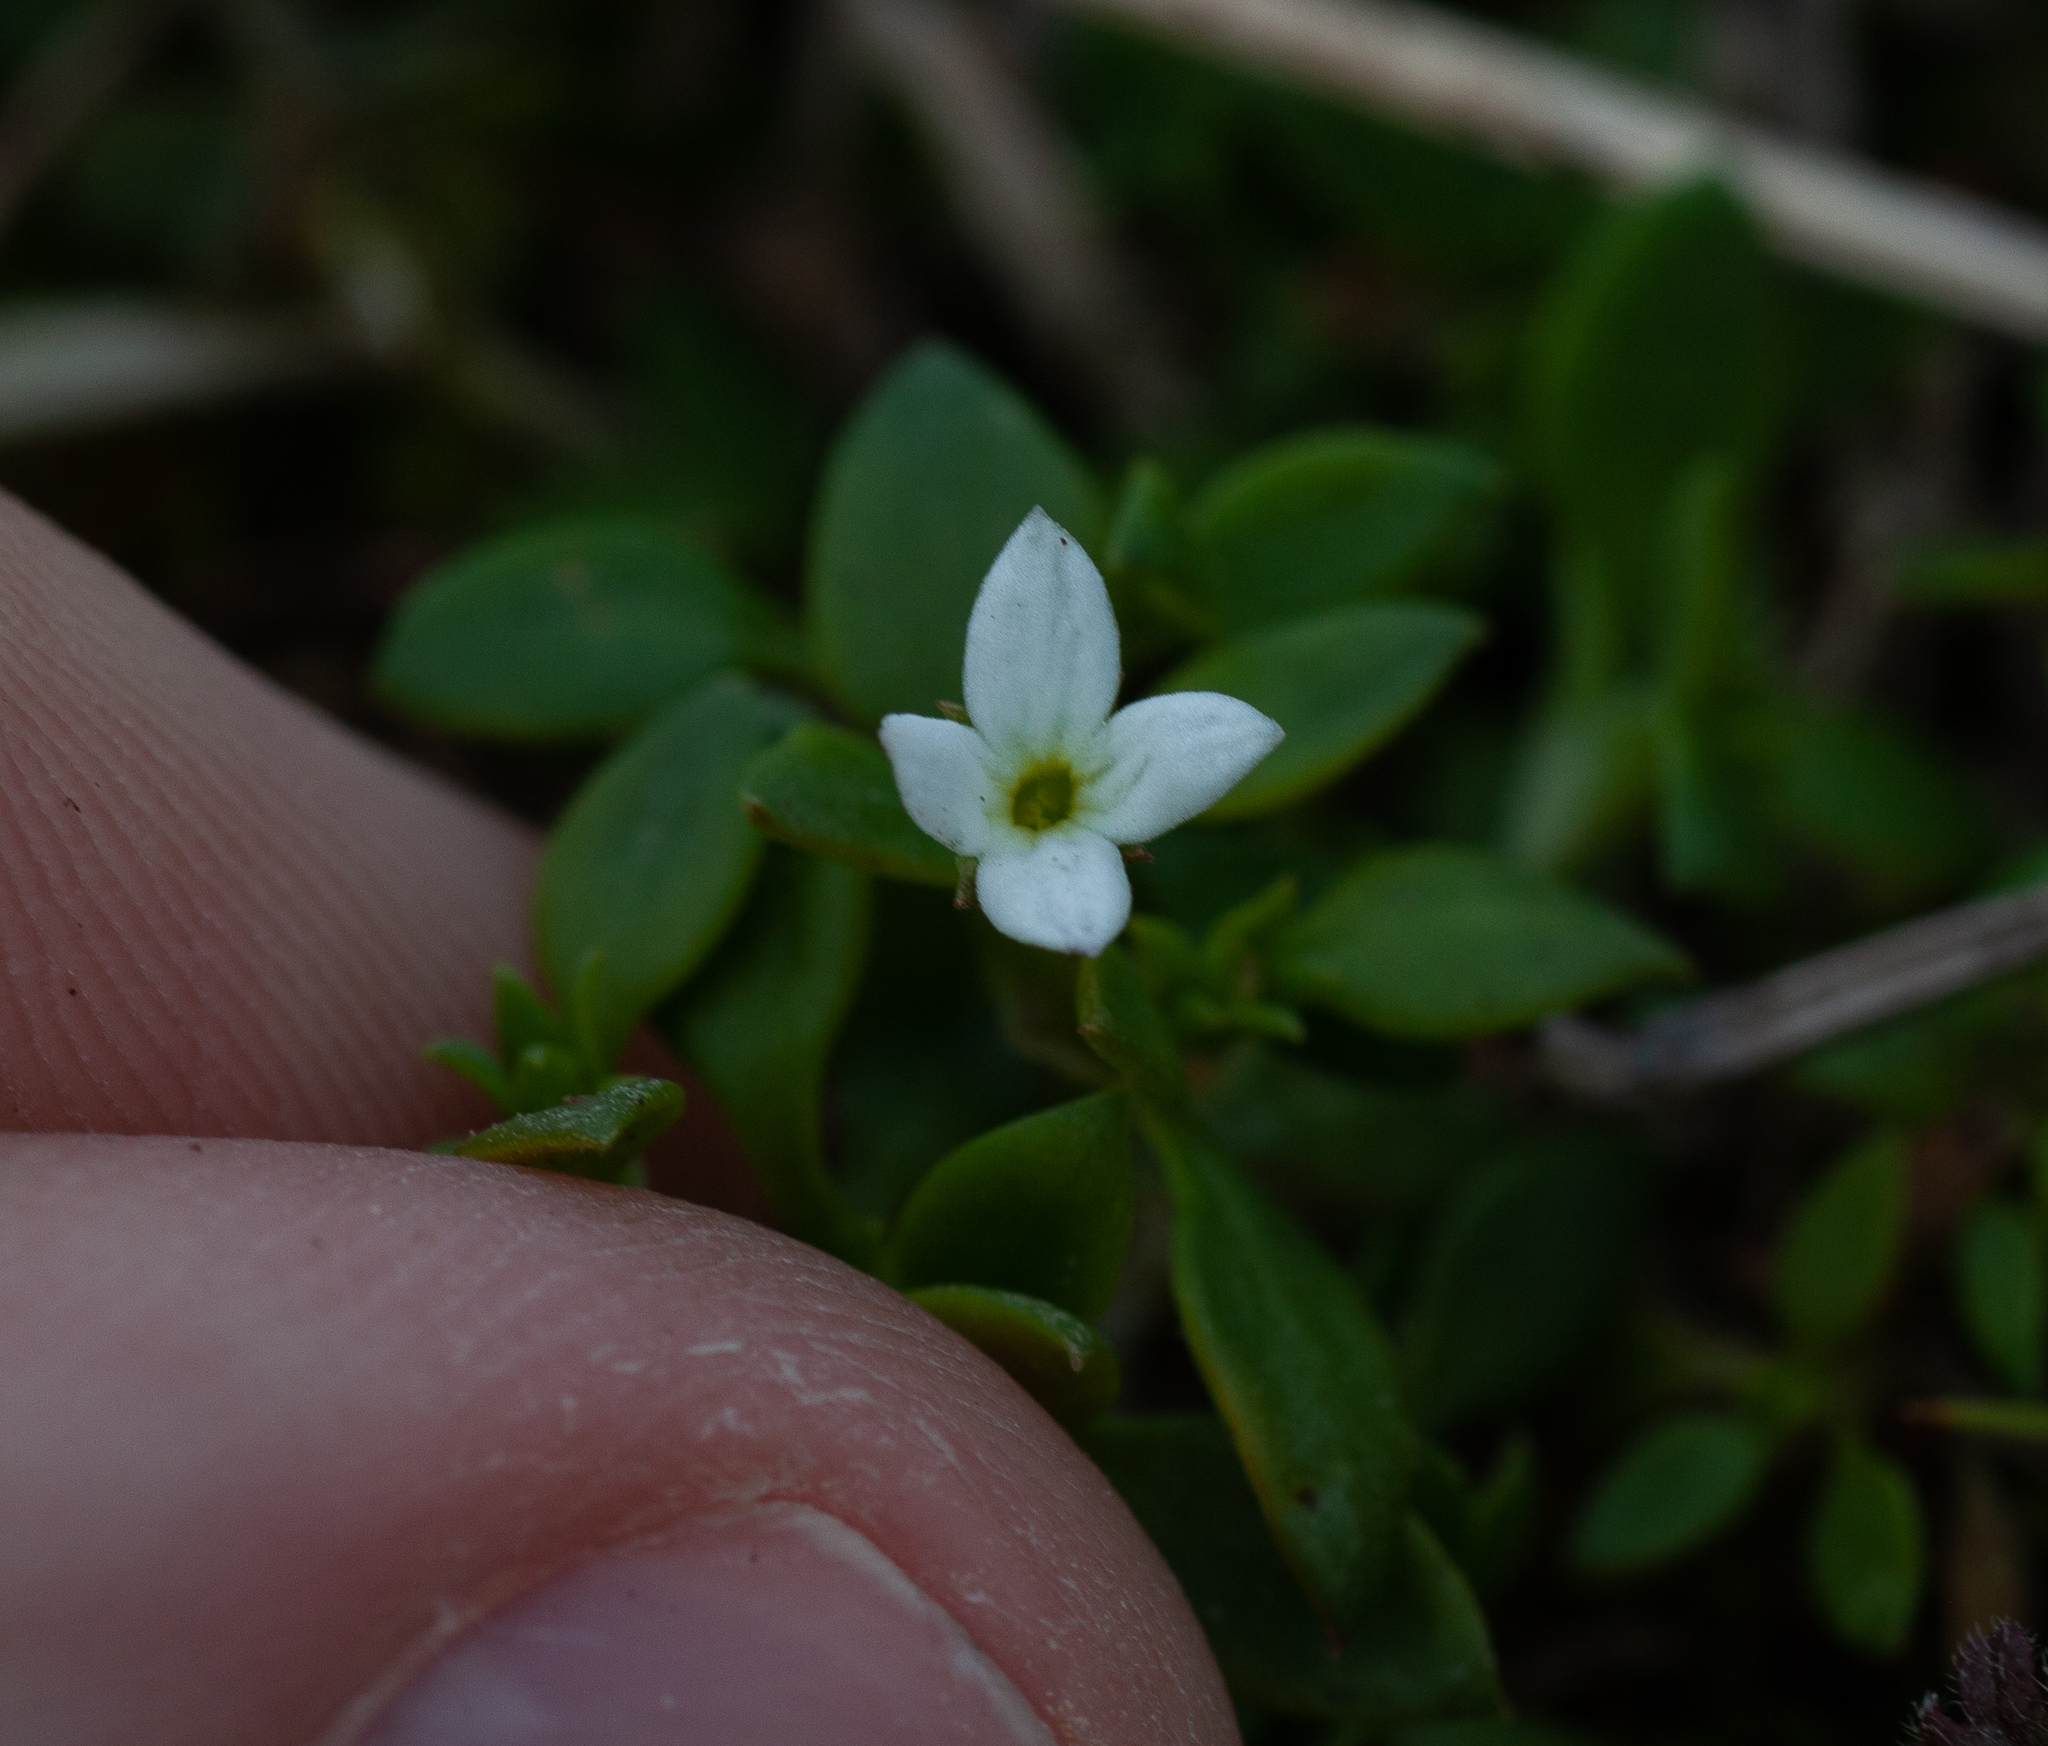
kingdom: Plantae
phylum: Tracheophyta
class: Magnoliopsida
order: Gentianales
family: Rubiaceae
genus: Houstonia
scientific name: Houstonia micrantha
